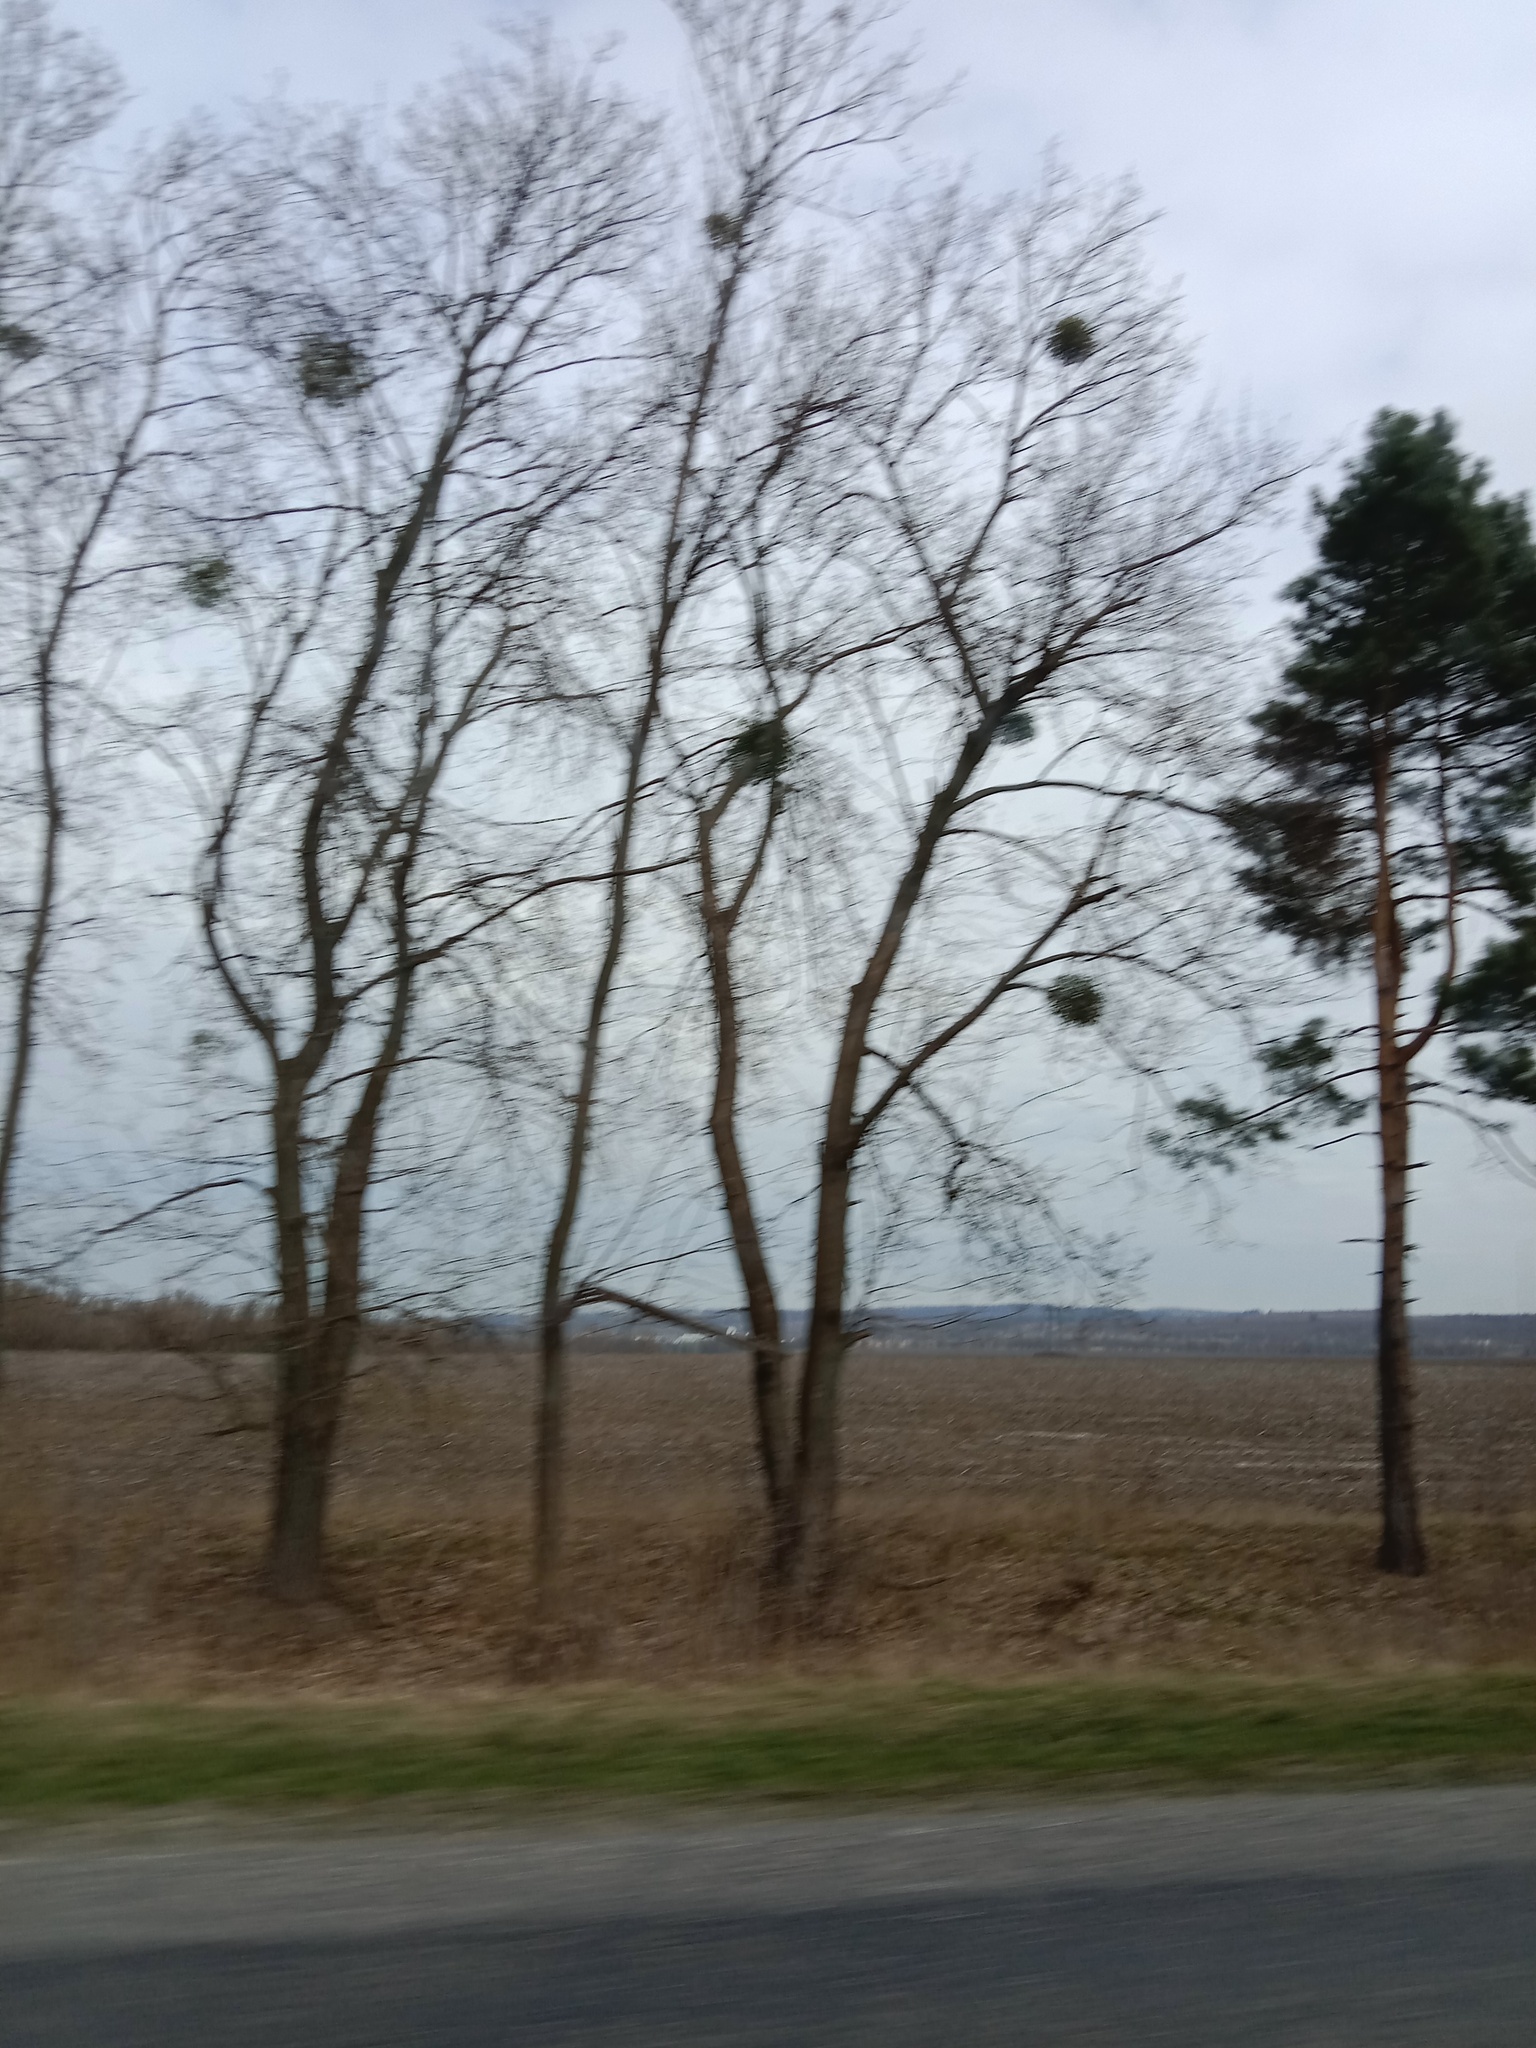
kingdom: Plantae
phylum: Tracheophyta
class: Magnoliopsida
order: Santalales
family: Viscaceae
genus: Viscum
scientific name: Viscum album
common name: Mistletoe
